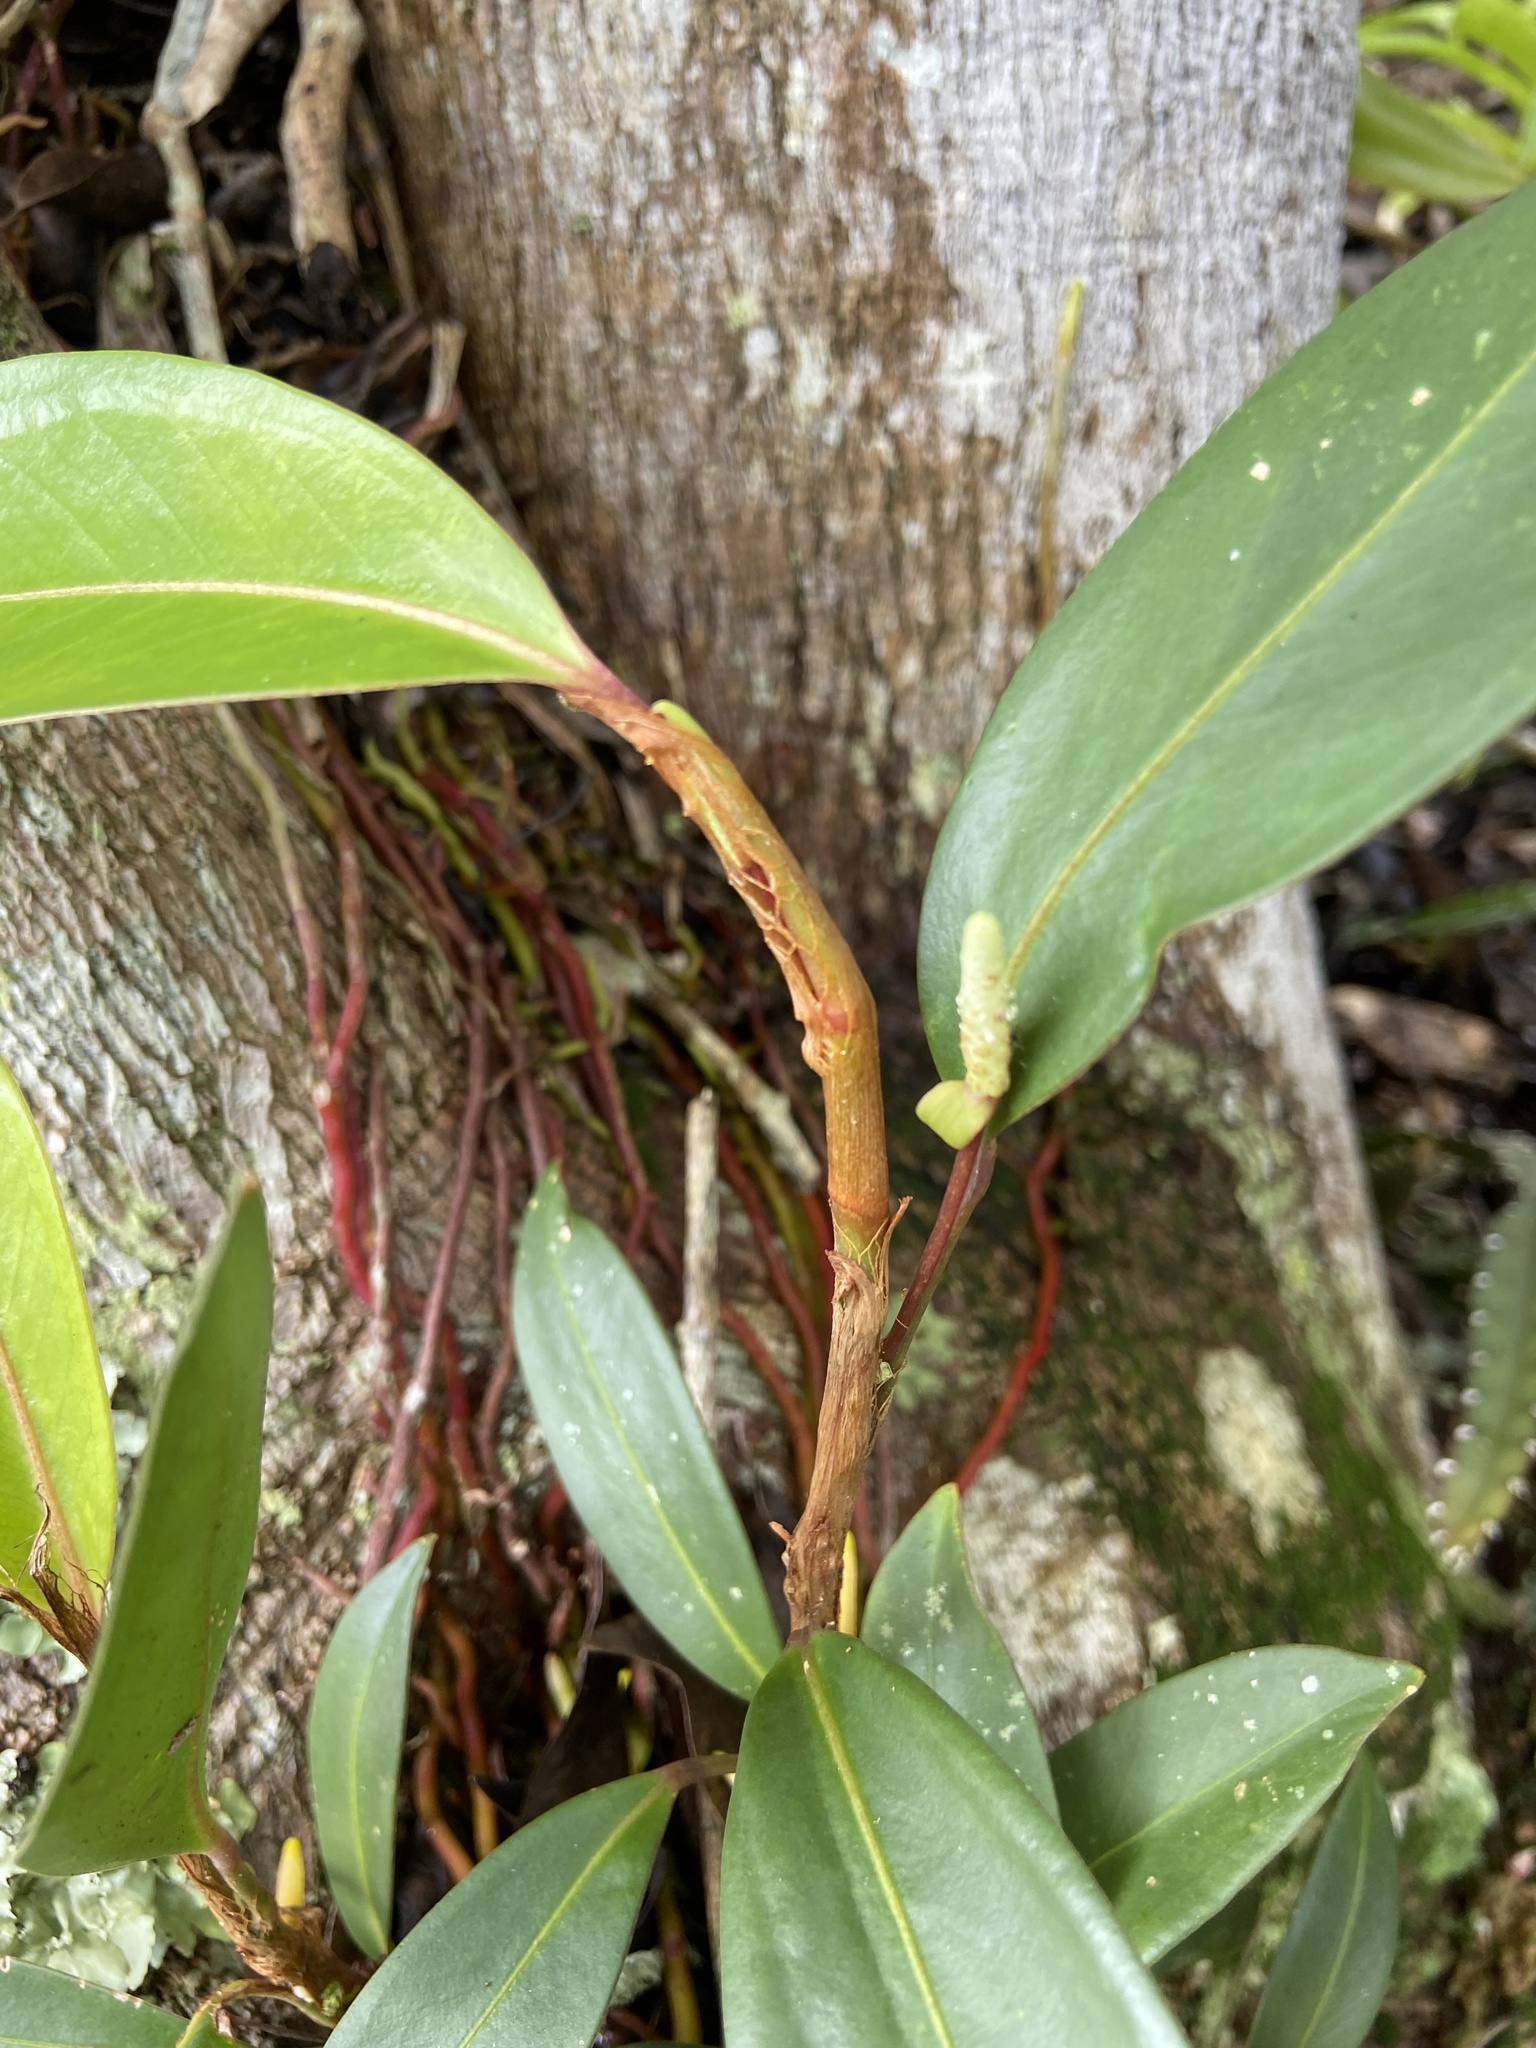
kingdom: Plantae
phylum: Tracheophyta
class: Liliopsida
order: Alismatales
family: Araceae
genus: Anthurium
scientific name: Anthurium scandens
